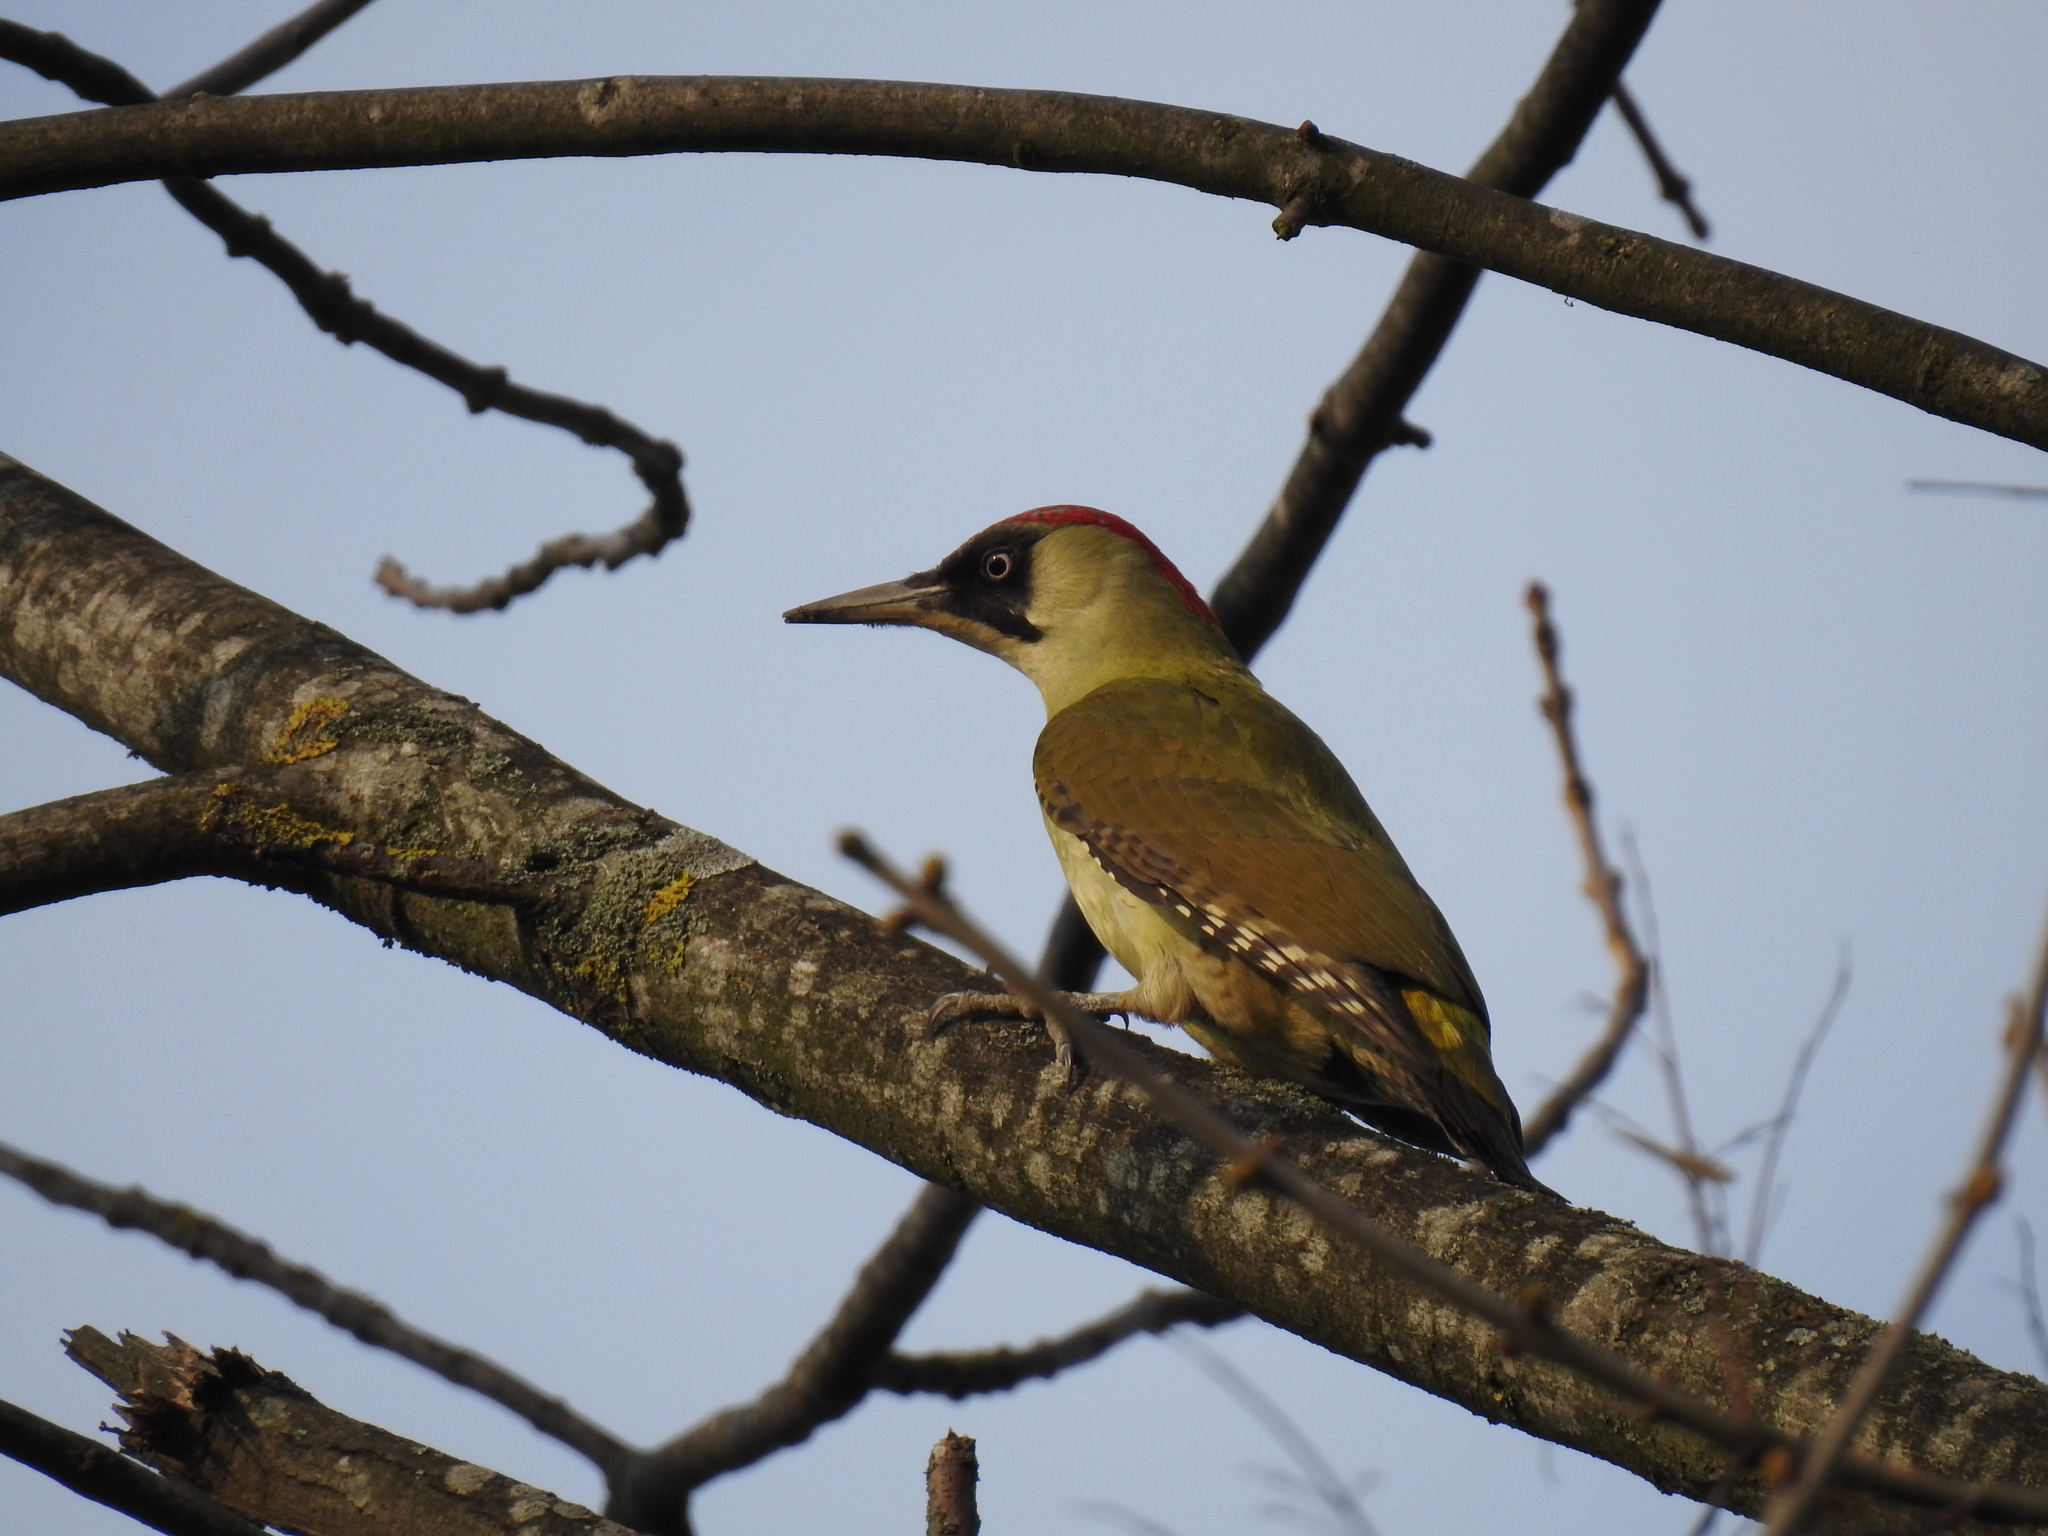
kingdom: Animalia
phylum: Chordata
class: Aves
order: Piciformes
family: Picidae
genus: Picus
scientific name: Picus viridis
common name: European green woodpecker
